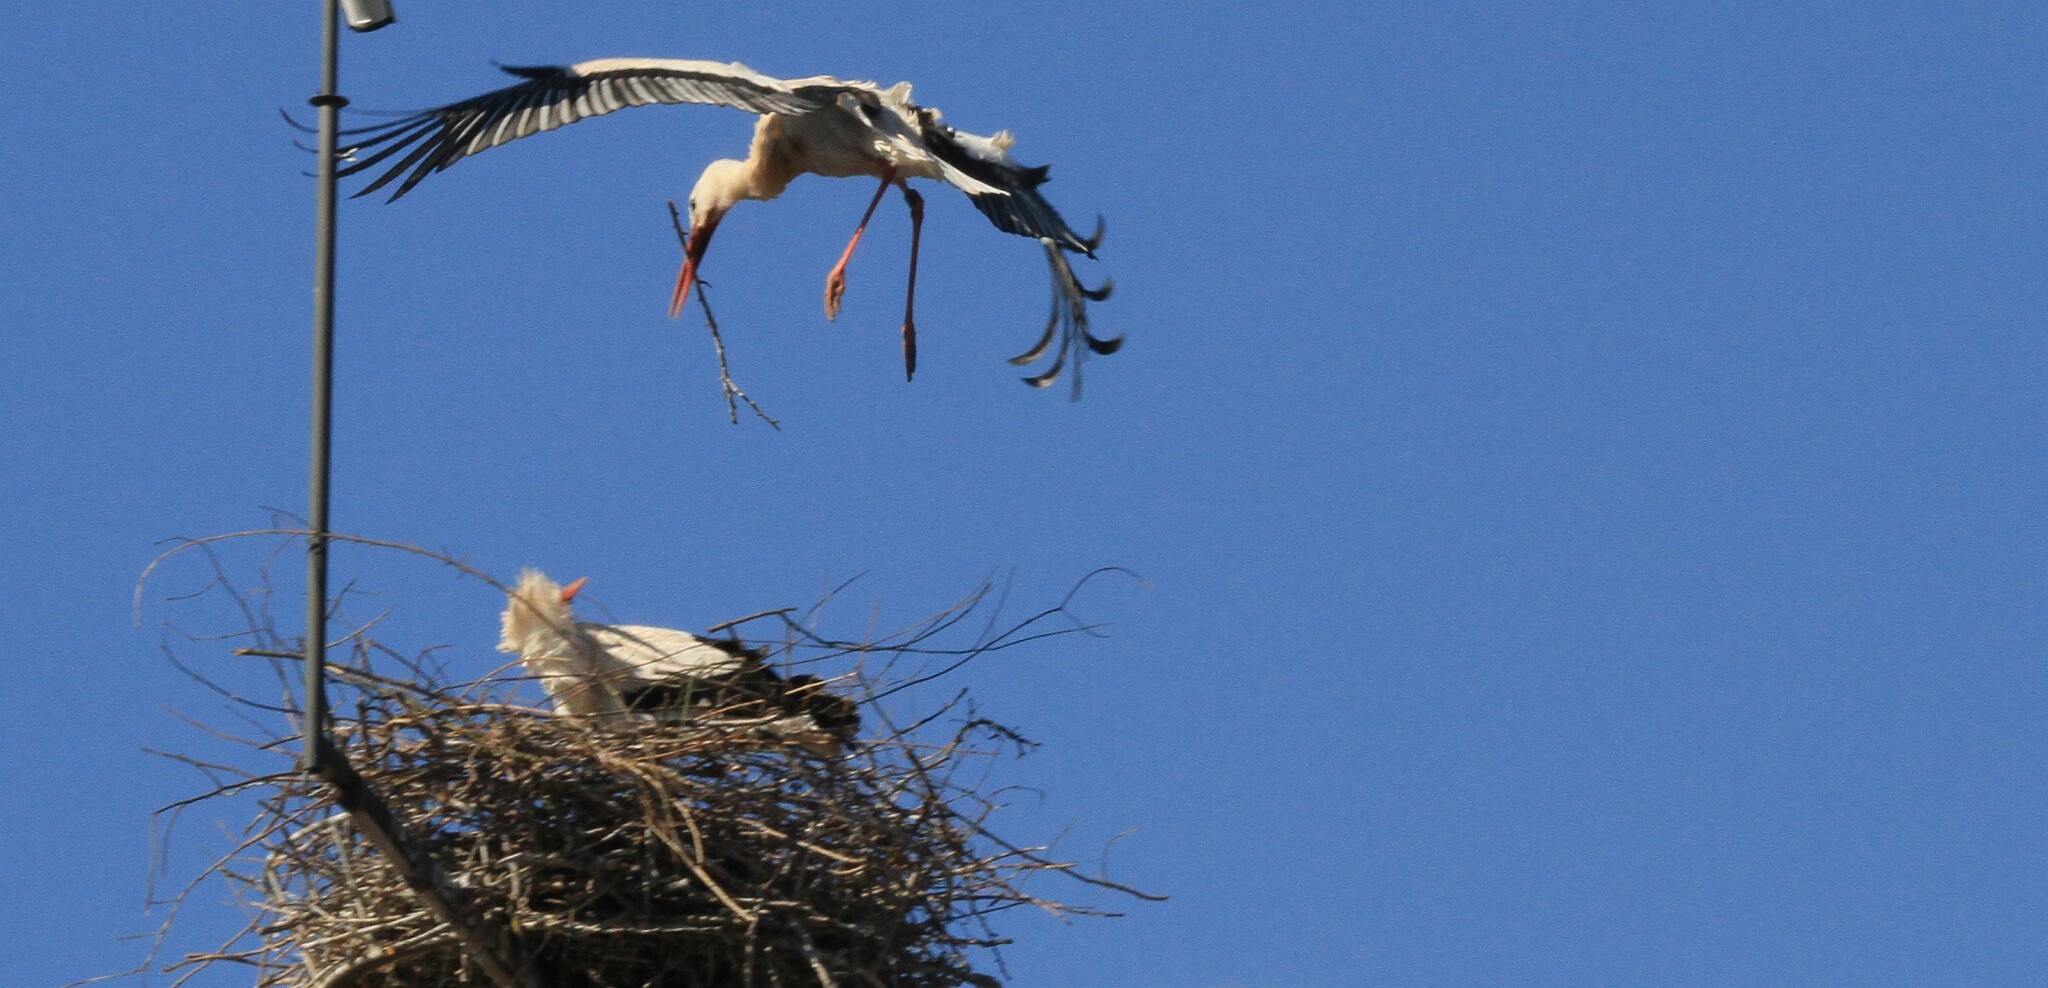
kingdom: Animalia
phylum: Chordata
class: Aves
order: Ciconiiformes
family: Ciconiidae
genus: Ciconia
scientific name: Ciconia ciconia
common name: White stork
